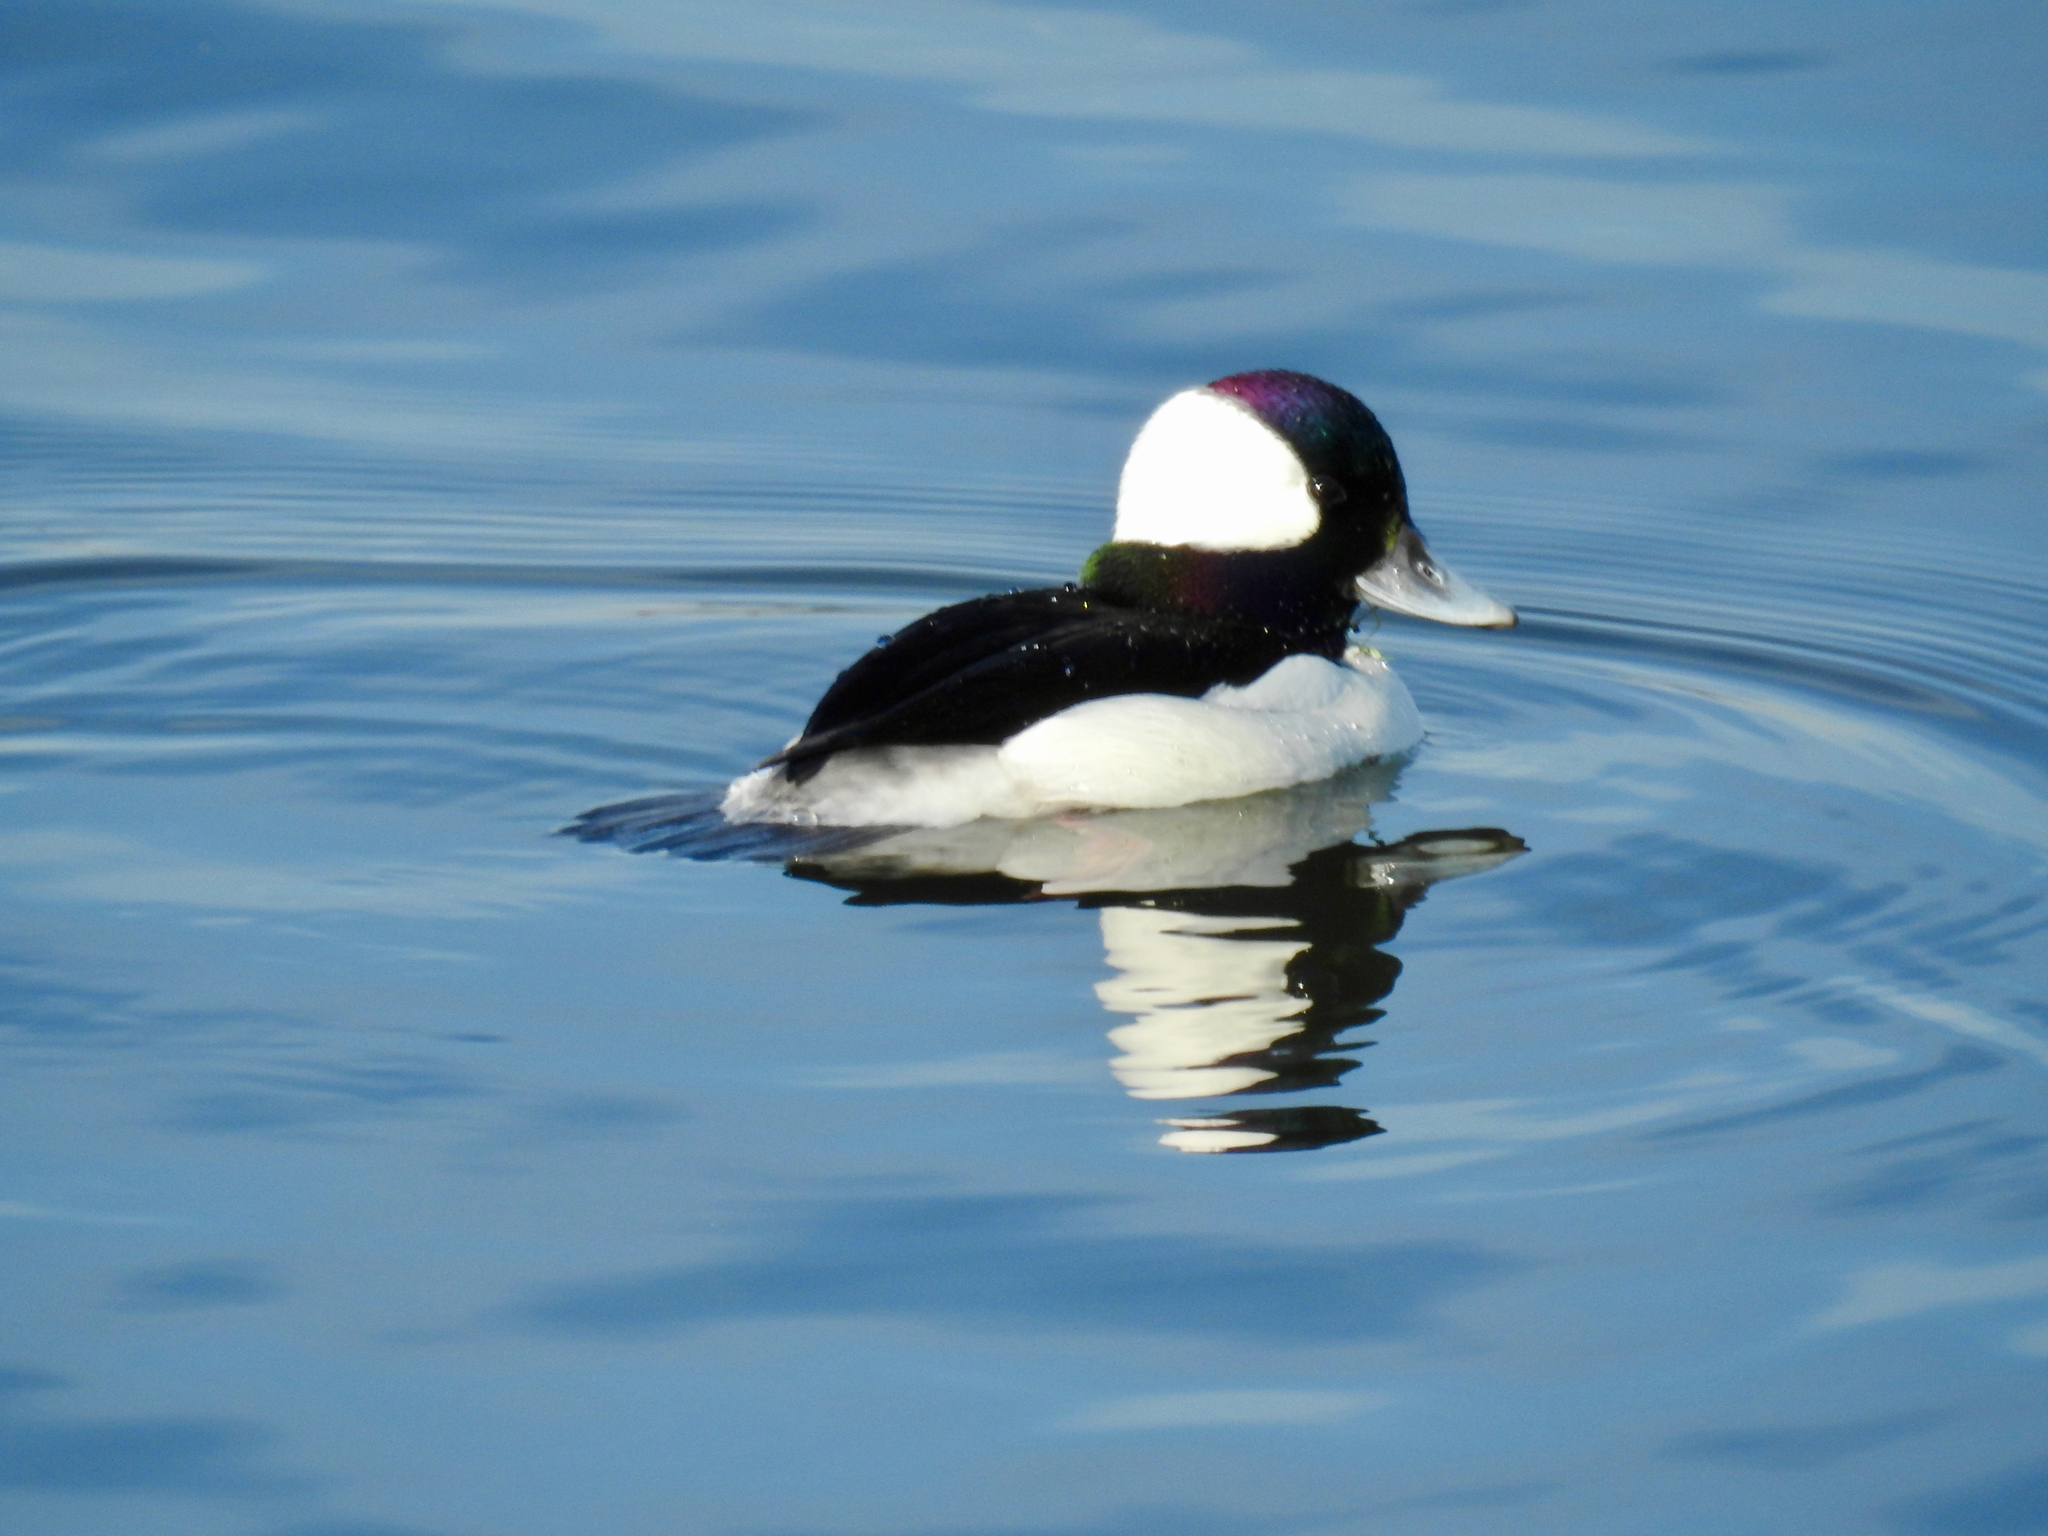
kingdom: Animalia
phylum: Chordata
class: Aves
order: Anseriformes
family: Anatidae
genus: Bucephala
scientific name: Bucephala albeola
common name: Bufflehead
